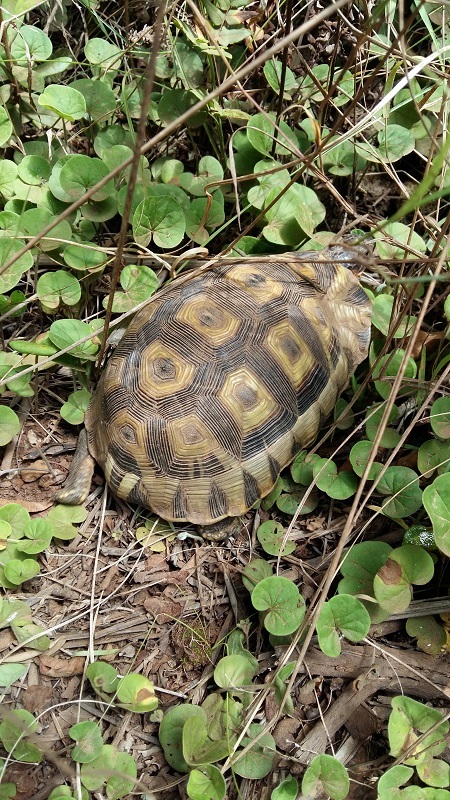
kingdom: Animalia
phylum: Chordata
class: Testudines
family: Testudinidae
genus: Chersina
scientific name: Chersina angulata
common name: South african bowsprit tortoise
